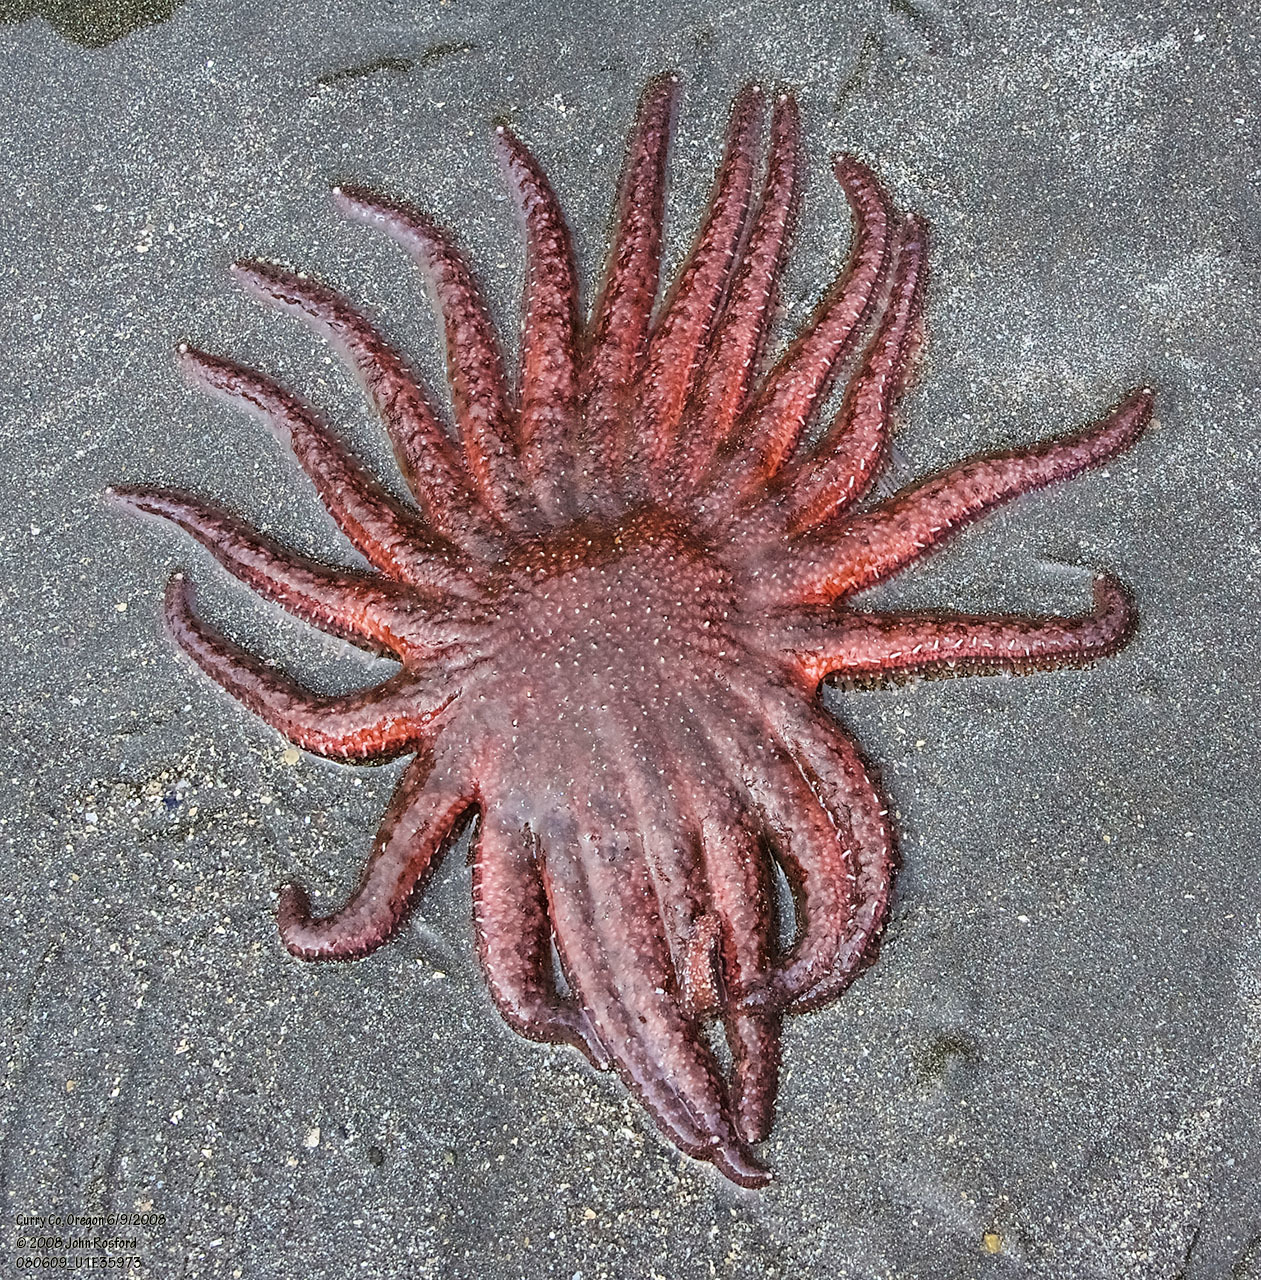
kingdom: Animalia
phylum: Echinodermata
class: Asteroidea
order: Forcipulatida
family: Asteriidae
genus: Pycnopodia
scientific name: Pycnopodia helianthoides
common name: Rag mop
